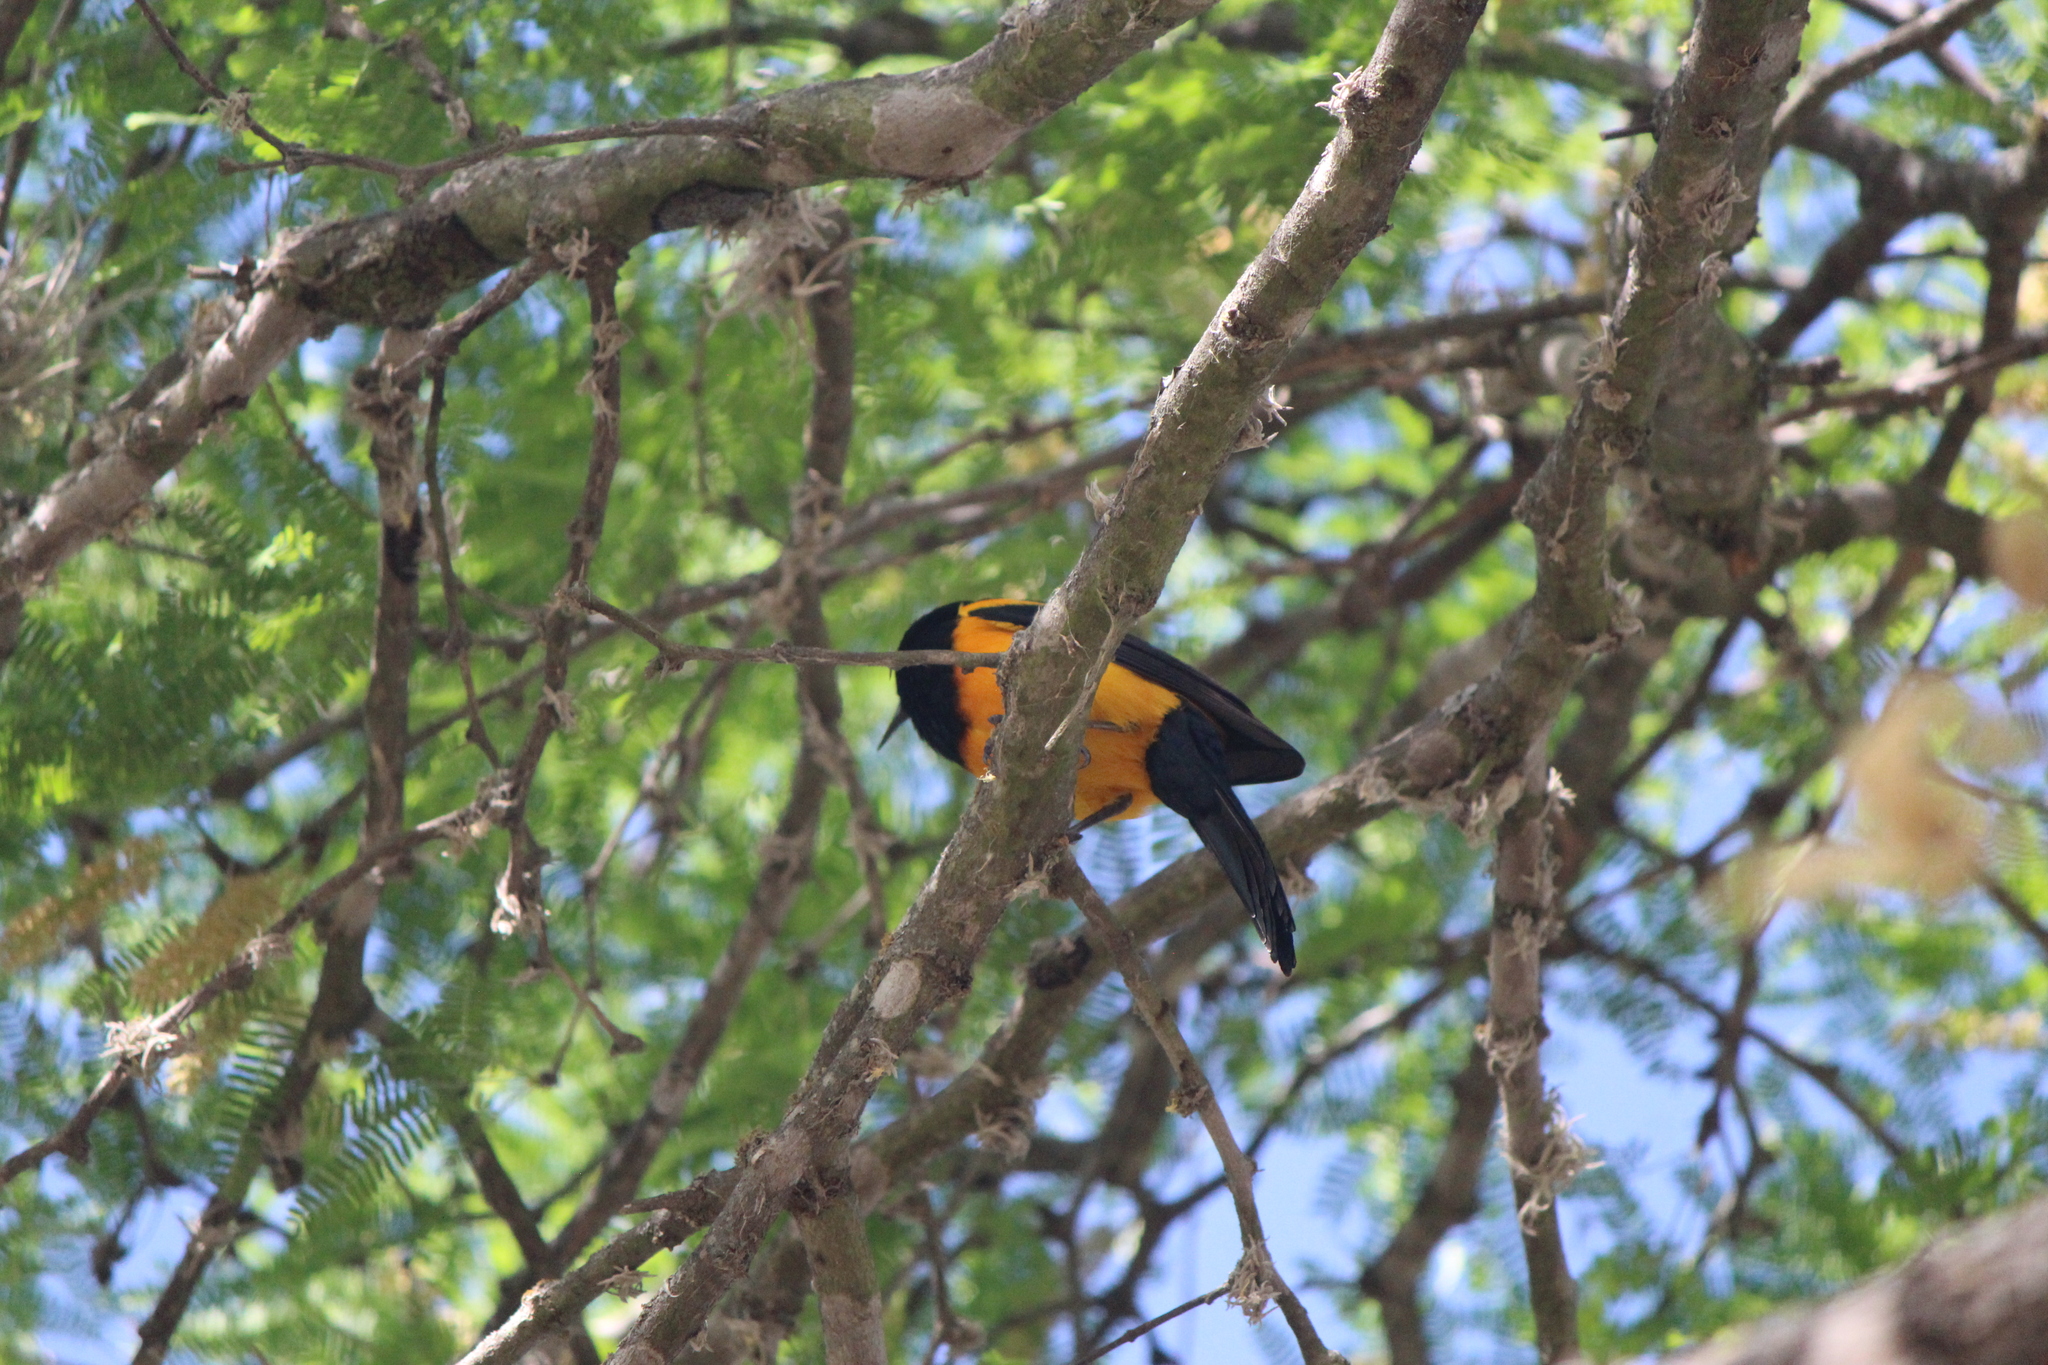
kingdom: Animalia
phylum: Chordata
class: Aves
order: Passeriformes
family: Icteridae
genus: Icterus
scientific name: Icterus wagleri
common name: Black-vented oriole
